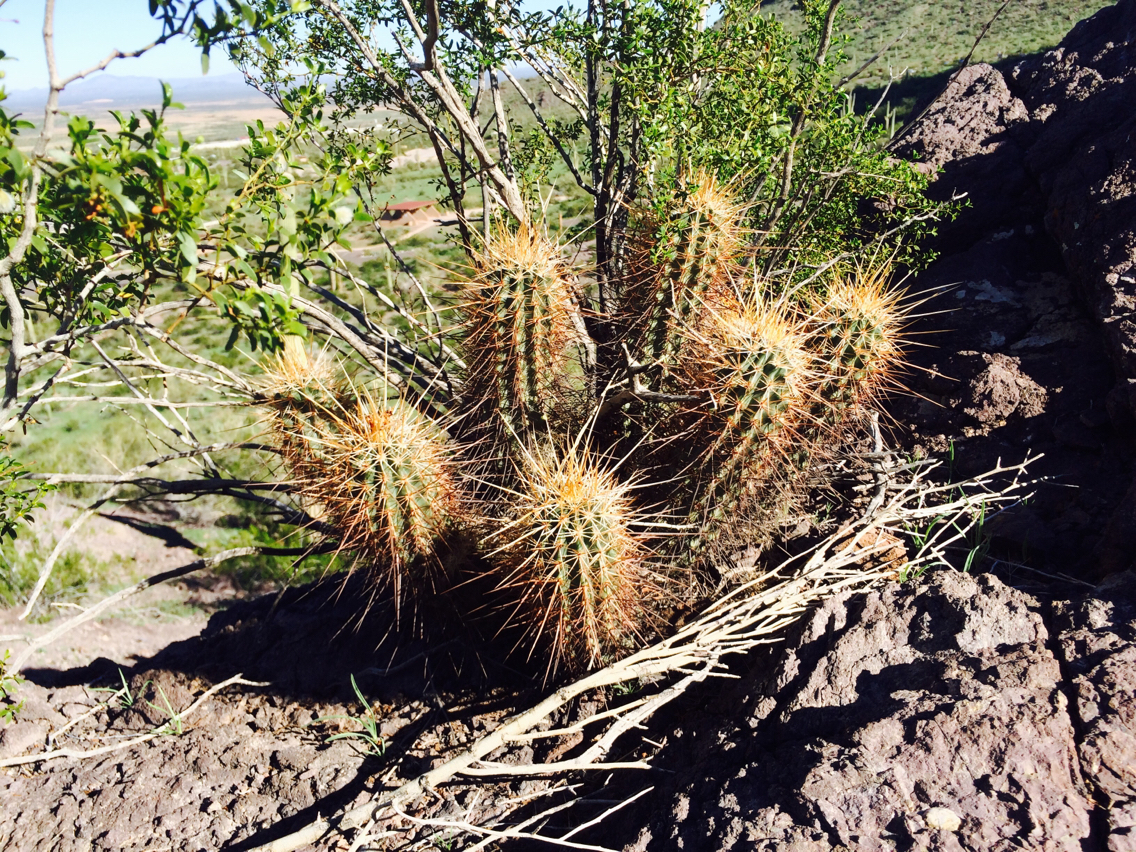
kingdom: Plantae
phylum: Tracheophyta
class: Magnoliopsida
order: Caryophyllales
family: Cactaceae
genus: Echinocereus
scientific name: Echinocereus engelmannii
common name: Engelmann's hedgehog cactus
